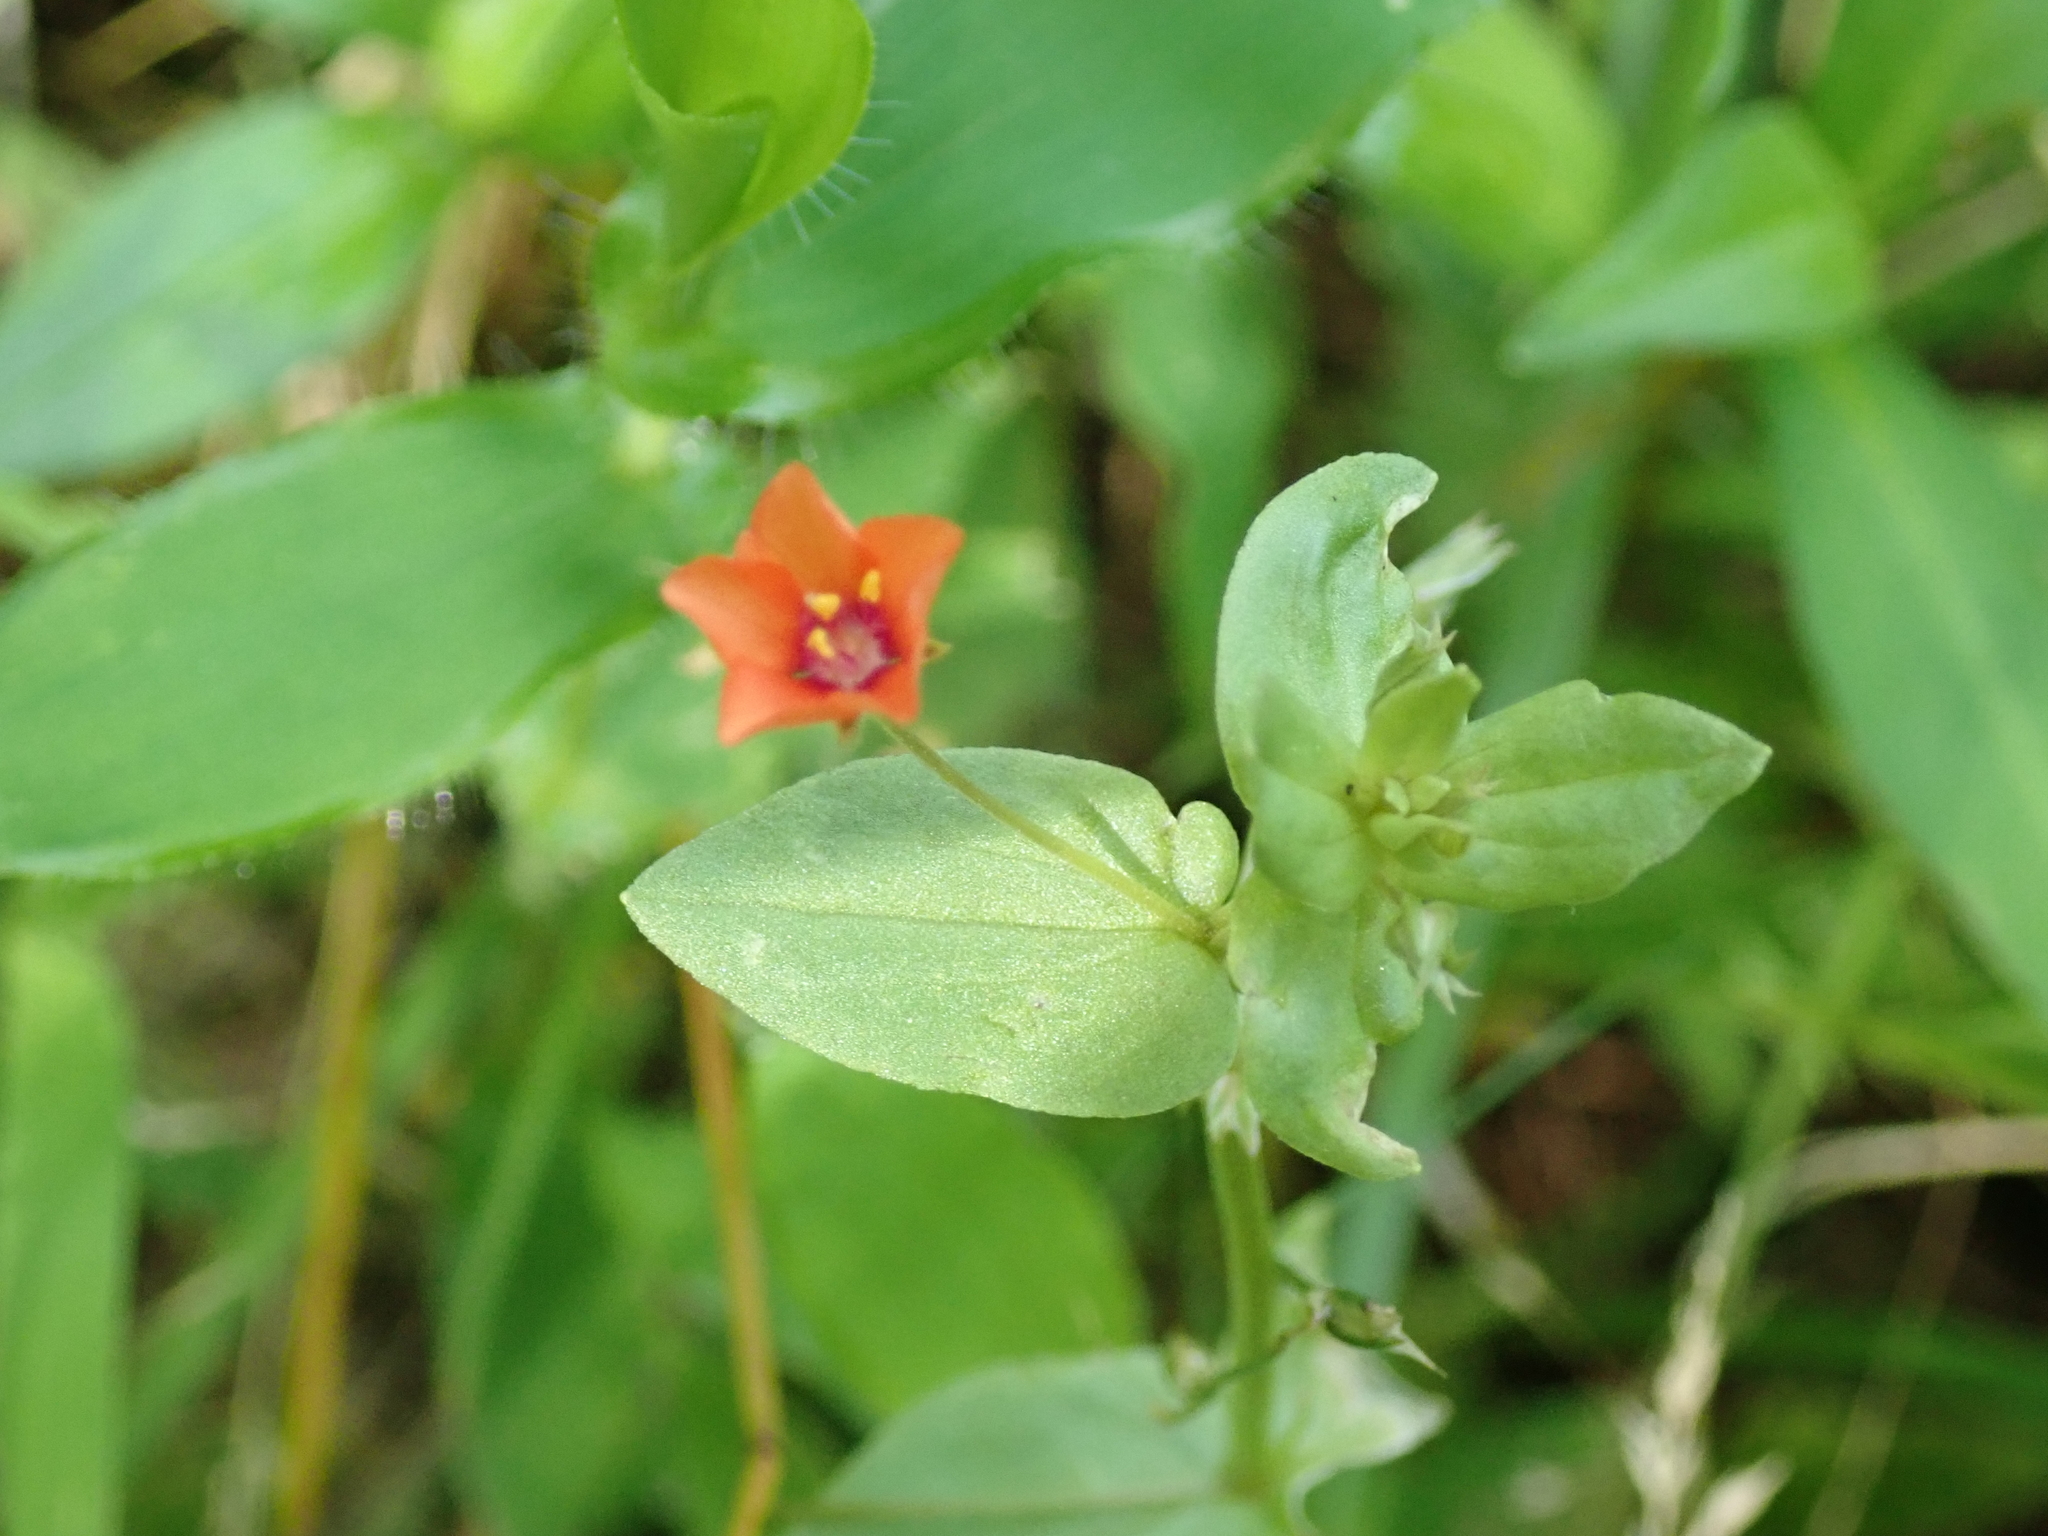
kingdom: Plantae
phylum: Tracheophyta
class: Magnoliopsida
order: Ericales
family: Primulaceae
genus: Lysimachia
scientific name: Lysimachia arvensis
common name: Scarlet pimpernel
